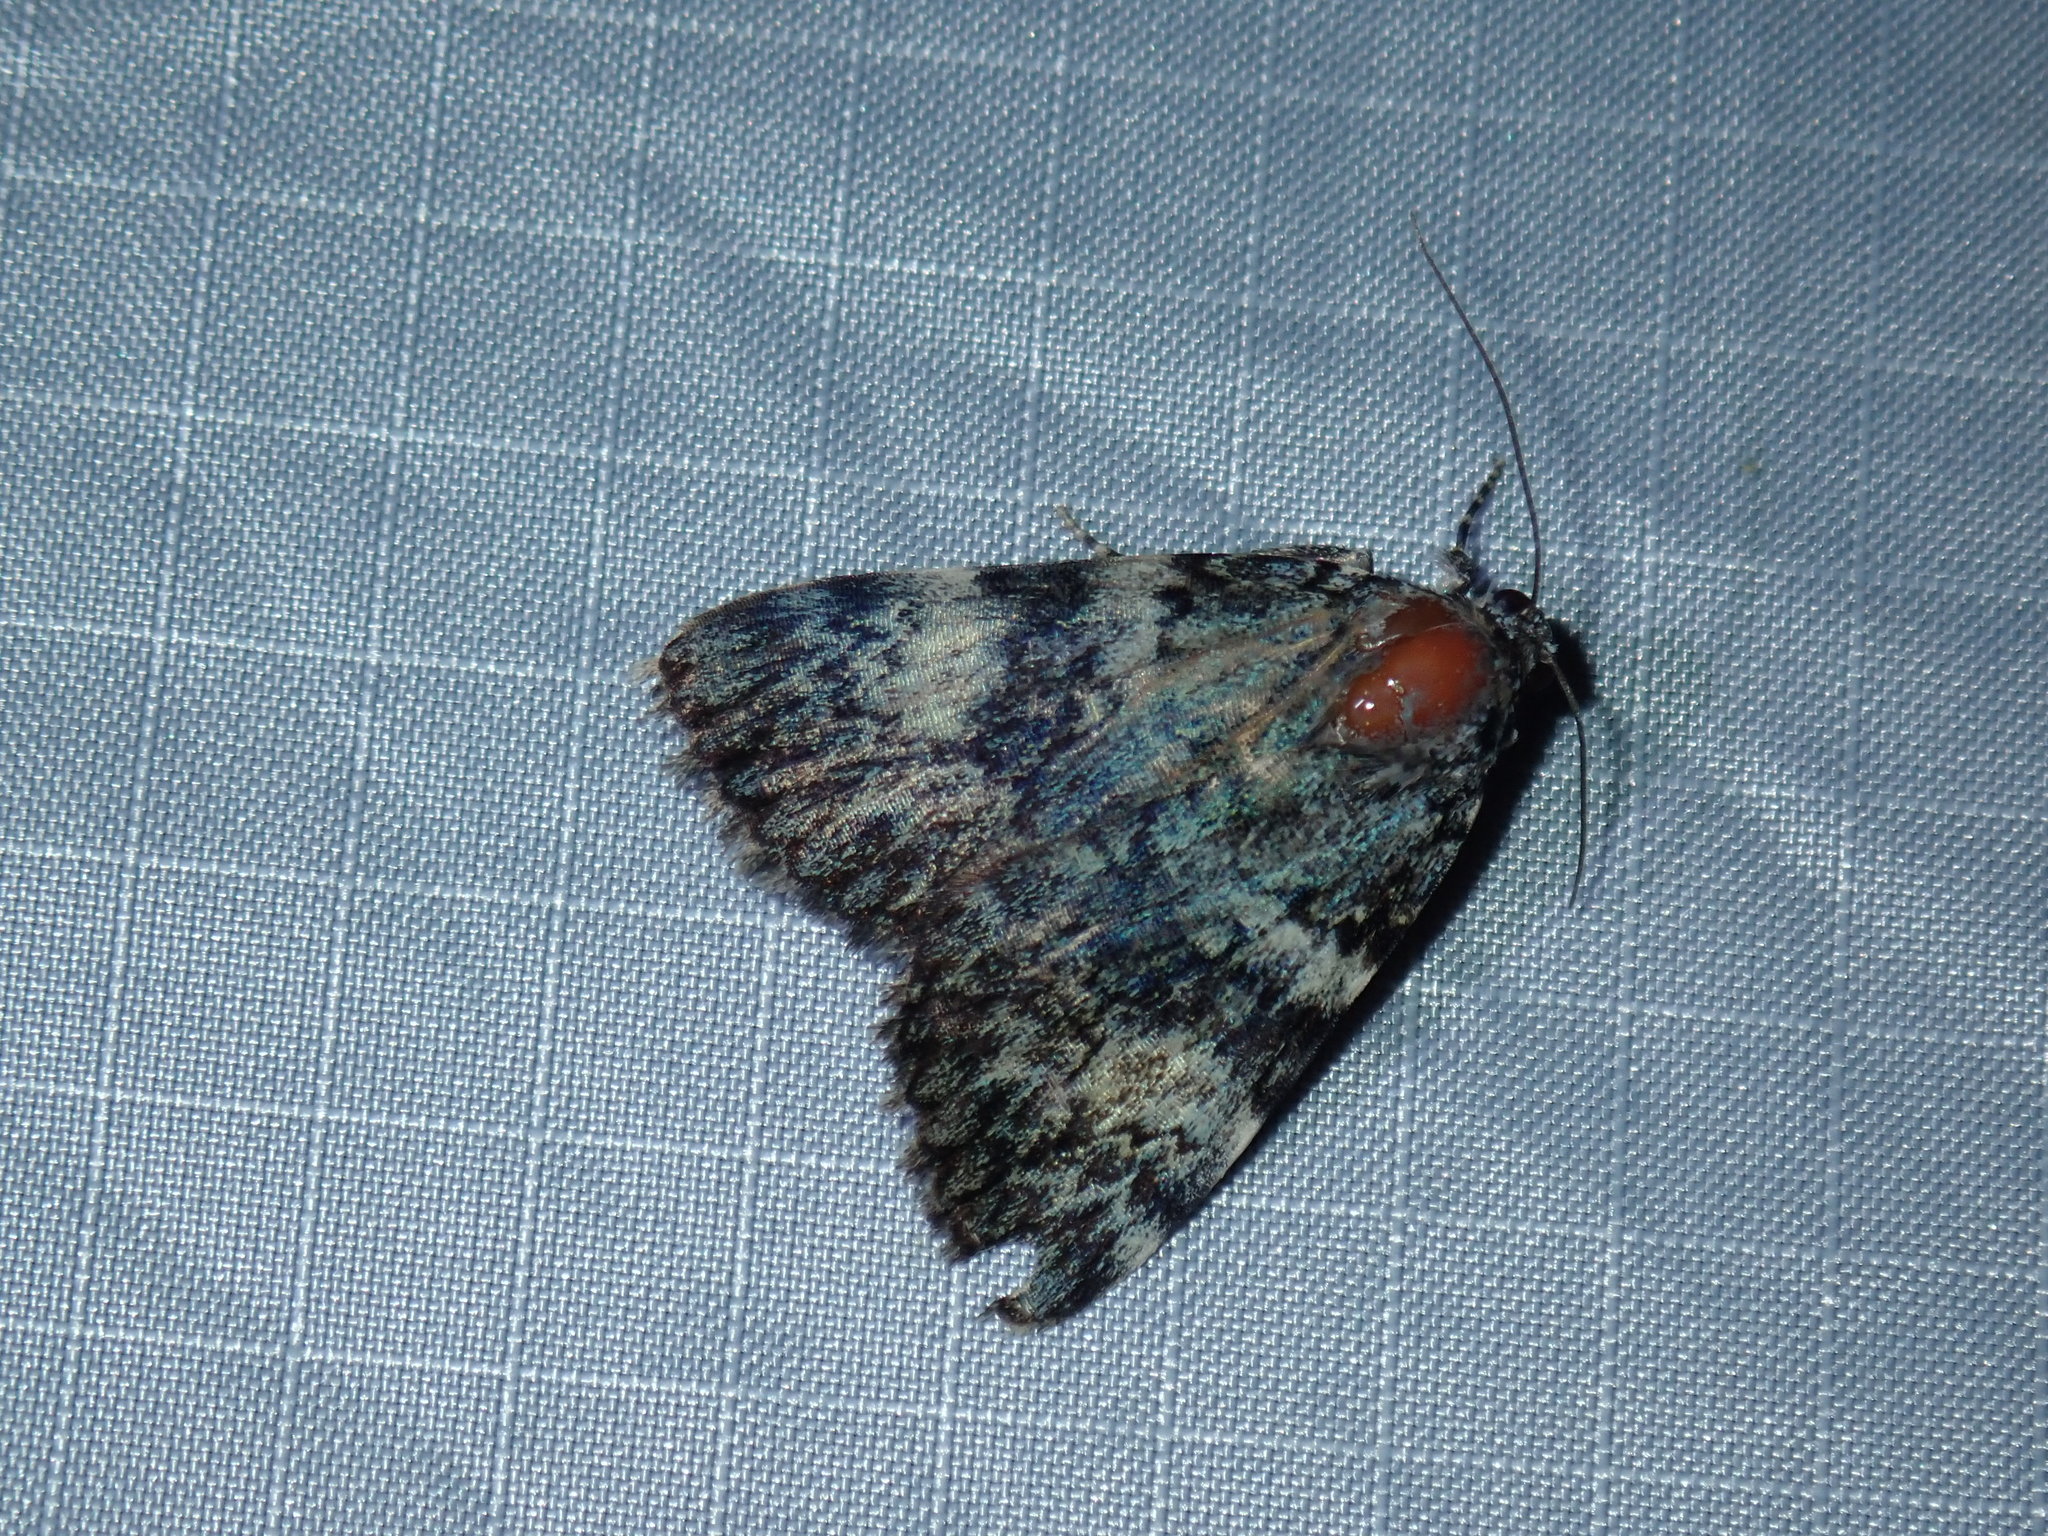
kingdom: Animalia
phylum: Arthropoda
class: Insecta
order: Lepidoptera
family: Erebidae
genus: Catocala
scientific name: Catocala lineella
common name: Little lined underwing
